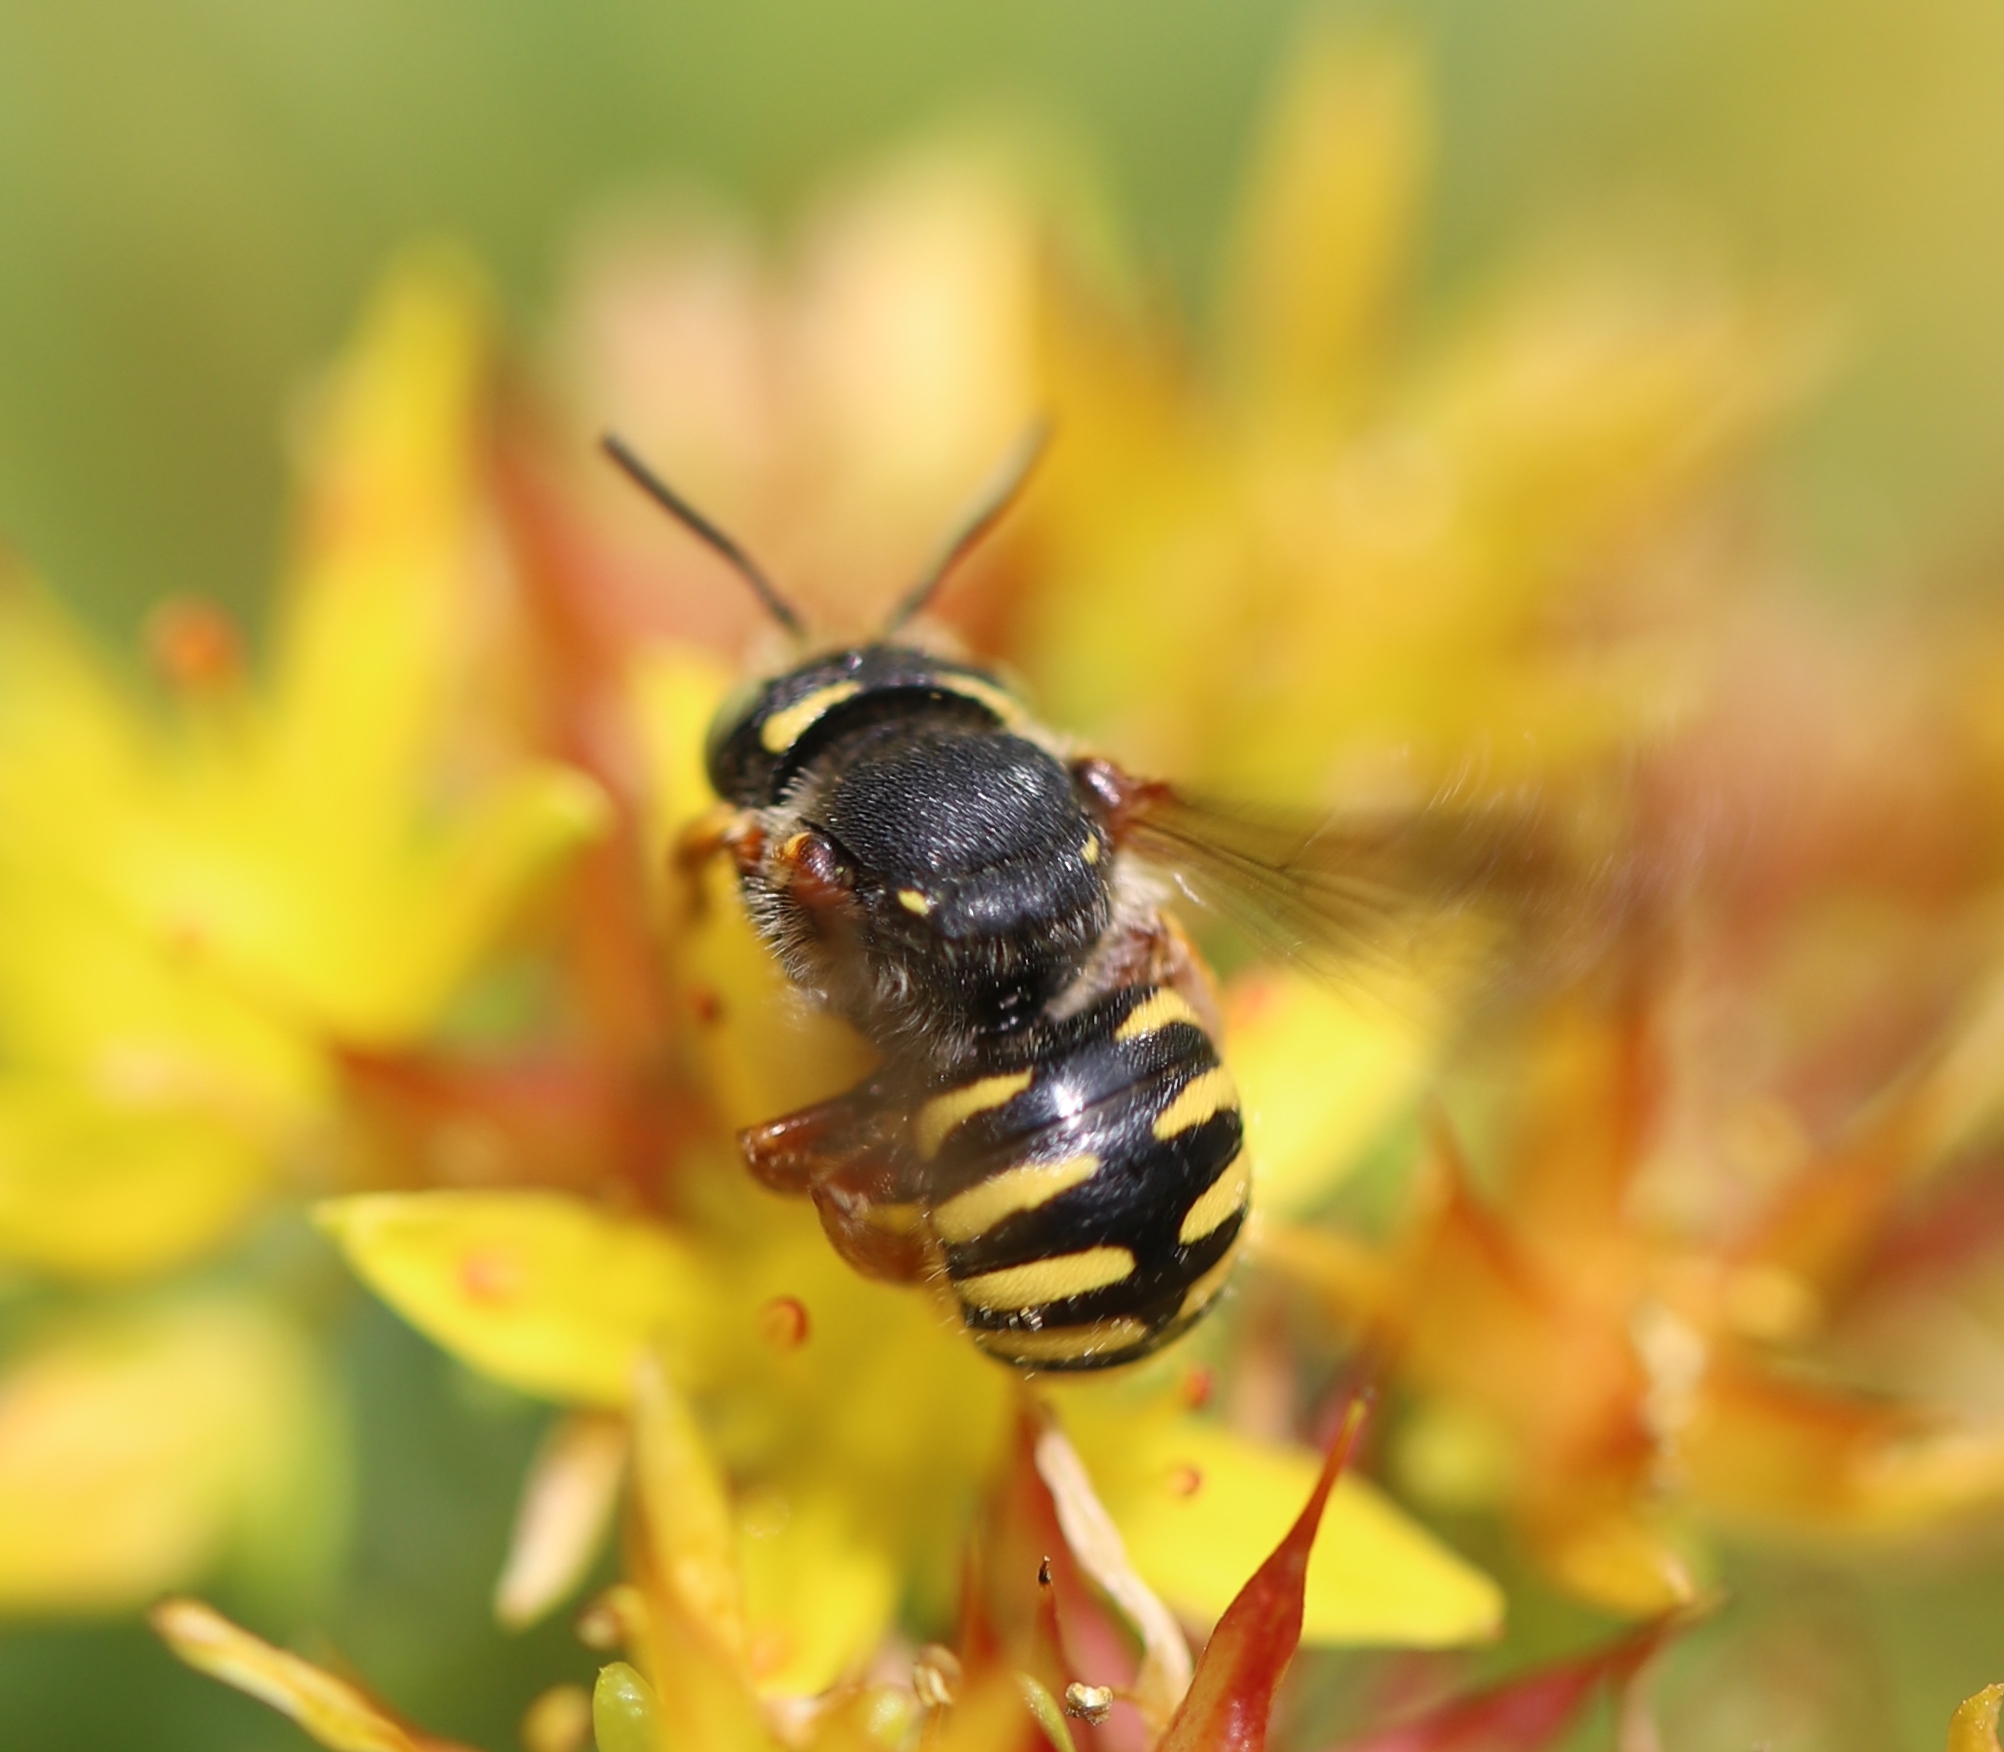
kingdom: Animalia
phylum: Arthropoda
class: Insecta
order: Hymenoptera
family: Megachilidae
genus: Anthidium
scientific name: Anthidium oblongatum
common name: Oblong wool carder bee
